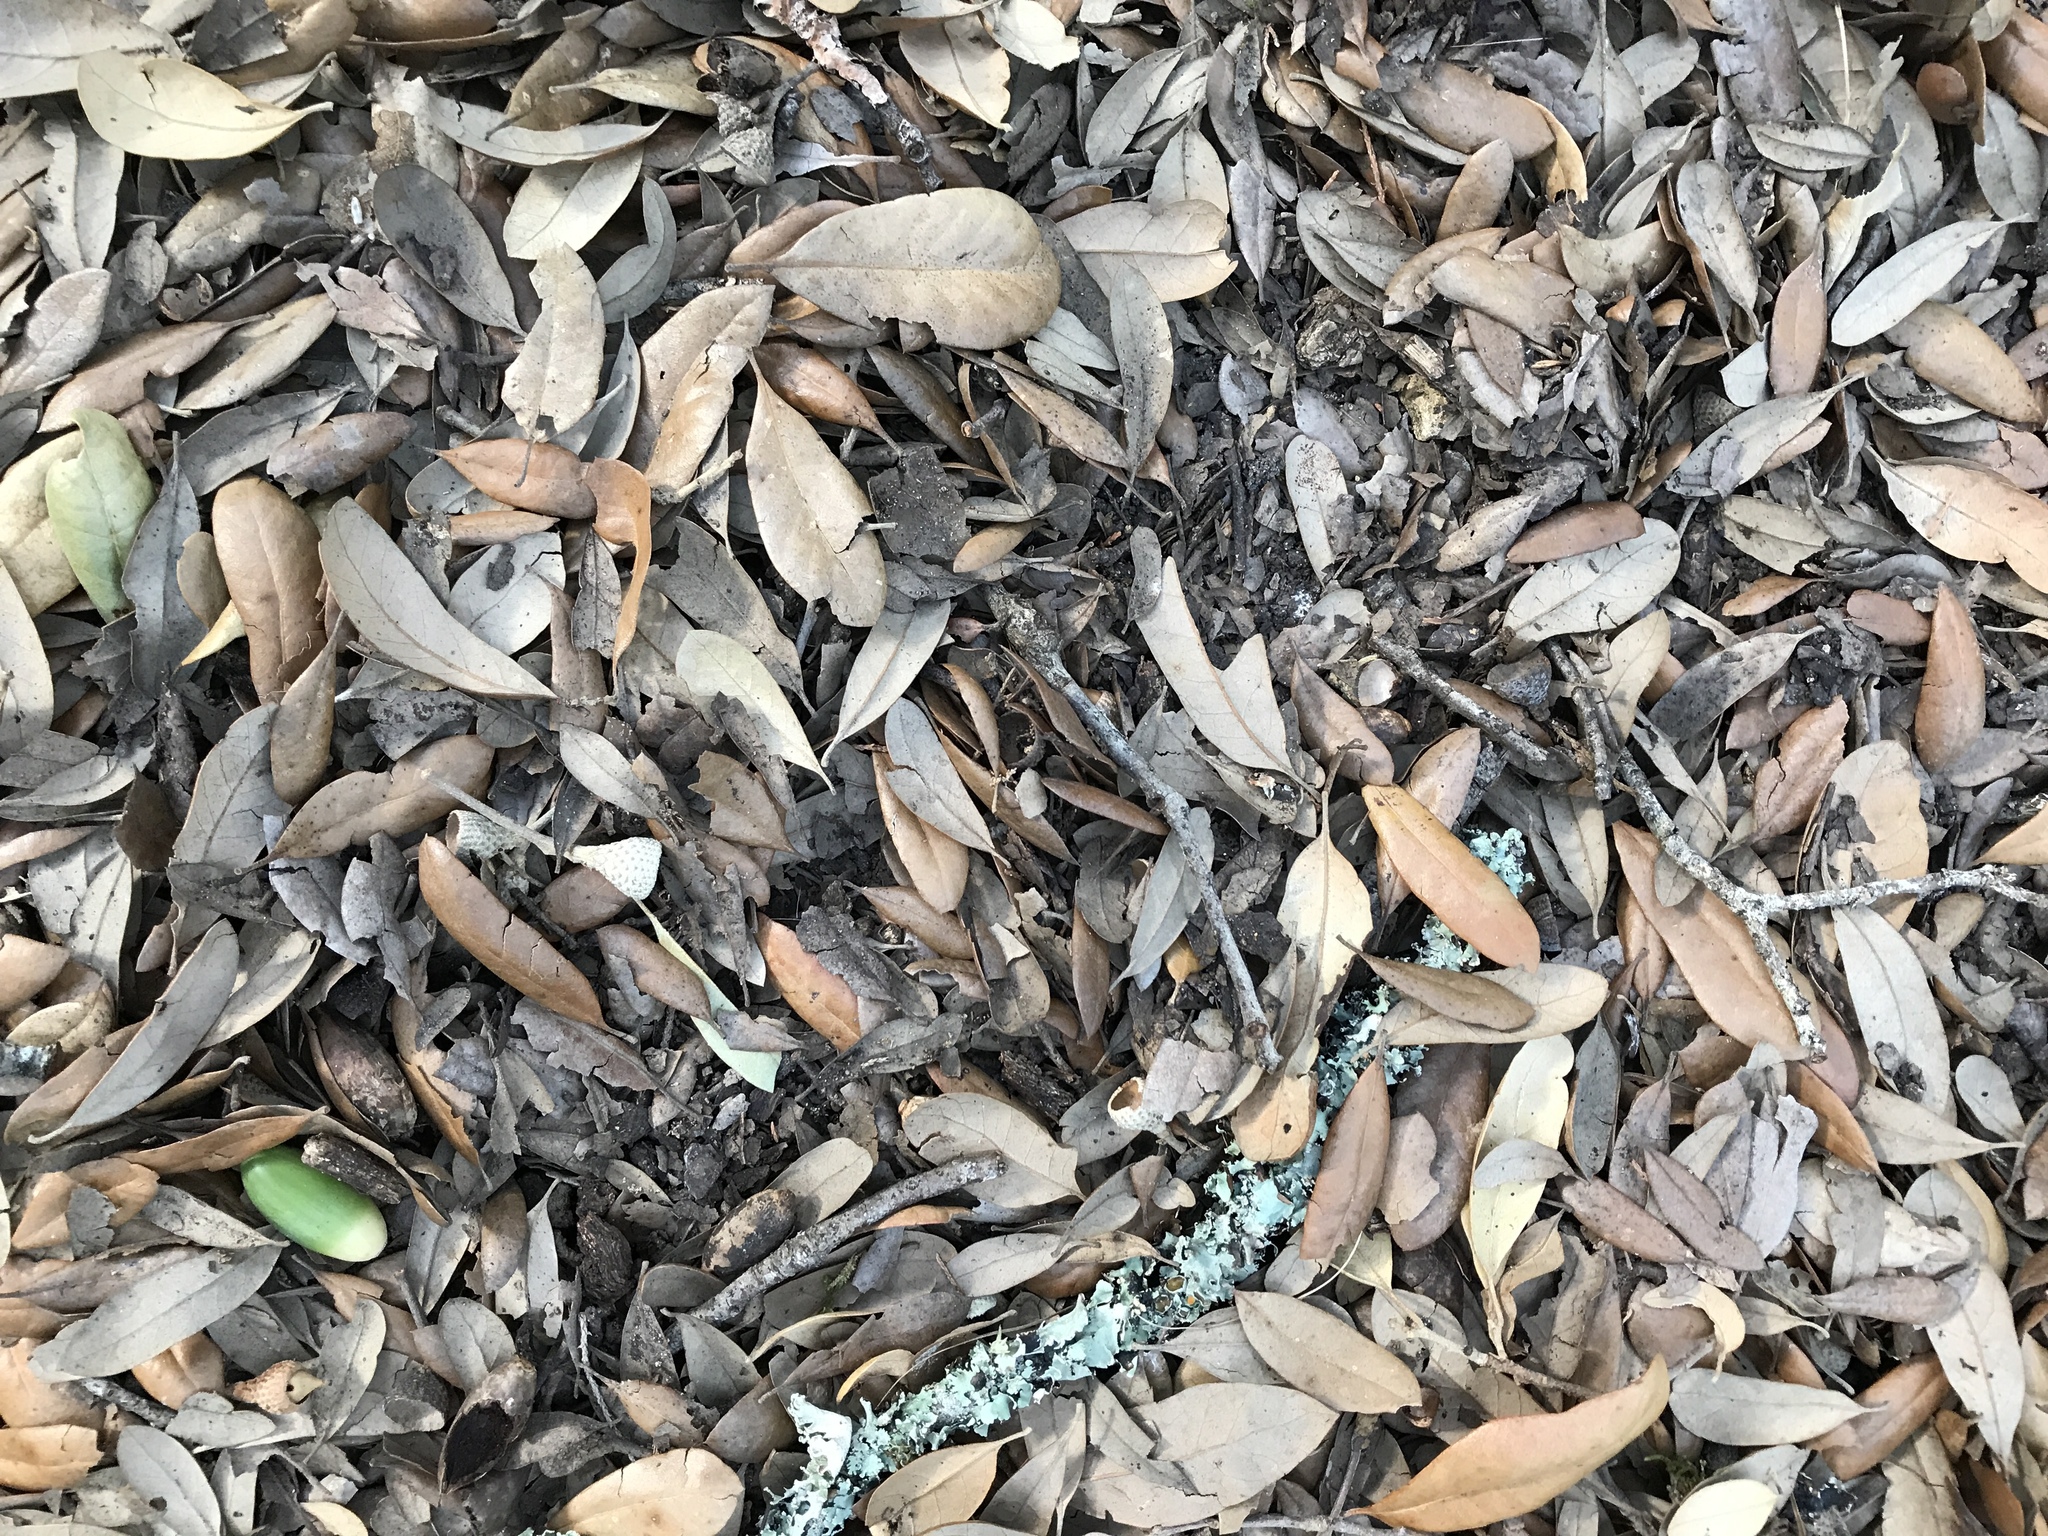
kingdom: Plantae
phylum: Tracheophyta
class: Magnoliopsida
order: Fagales
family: Fagaceae
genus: Quercus
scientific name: Quercus fusiformis
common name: Texas live oak
